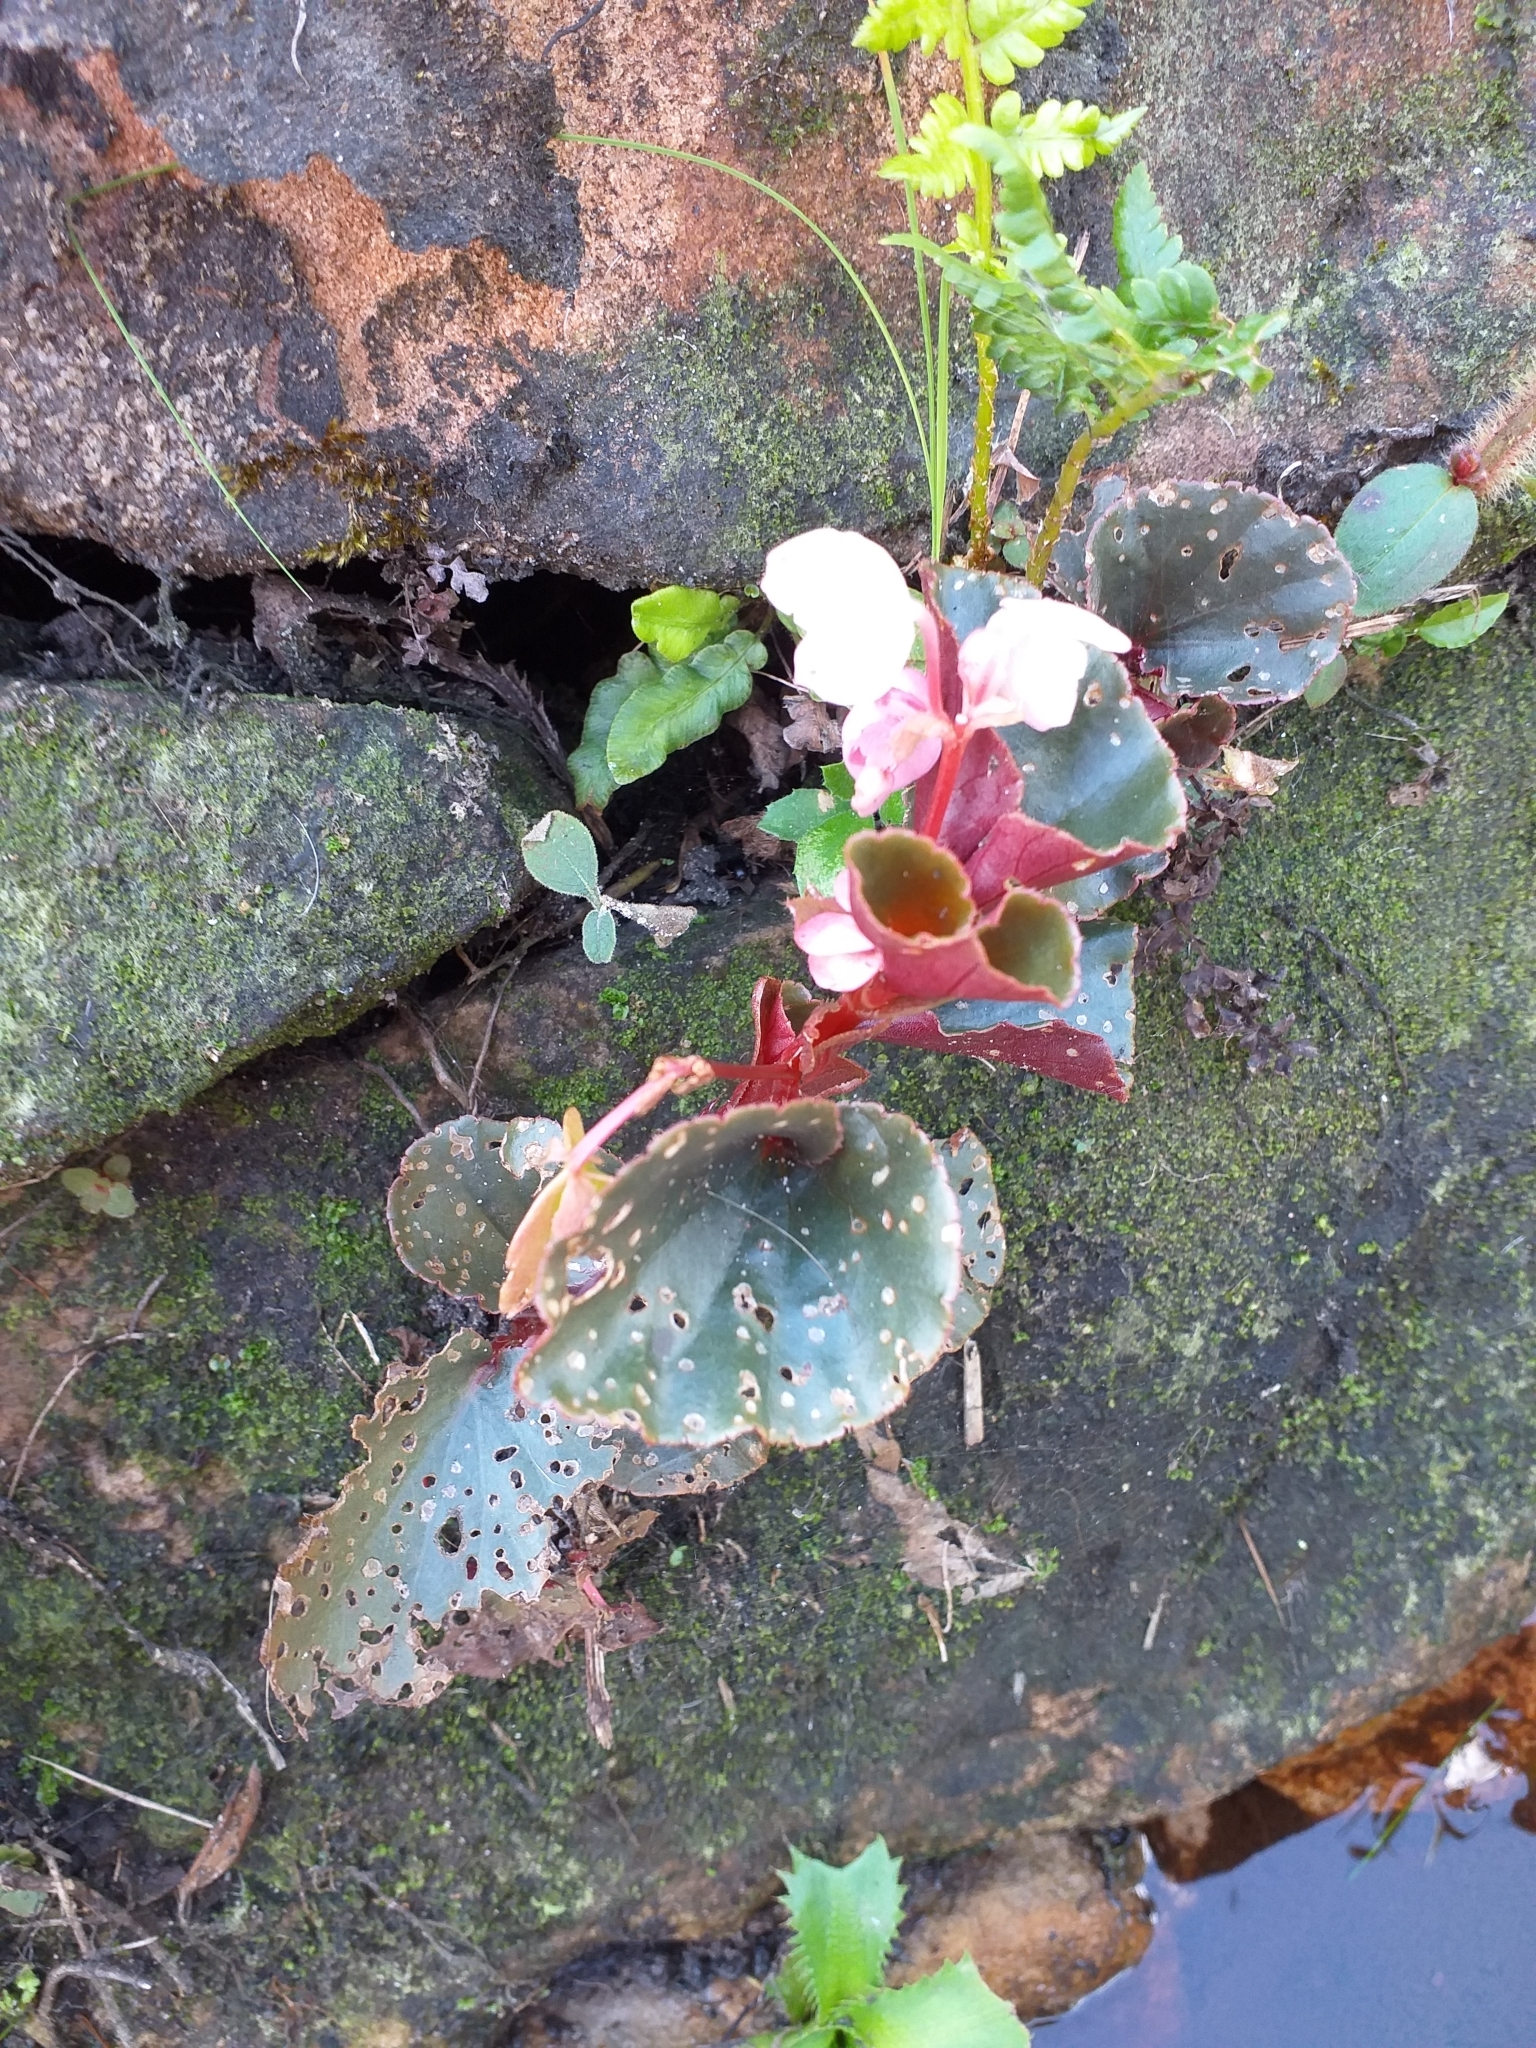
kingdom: Plantae
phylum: Tracheophyta
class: Magnoliopsida
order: Cucurbitales
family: Begoniaceae
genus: Begonia
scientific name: Begonia cucullata
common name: Clubbed begonia
